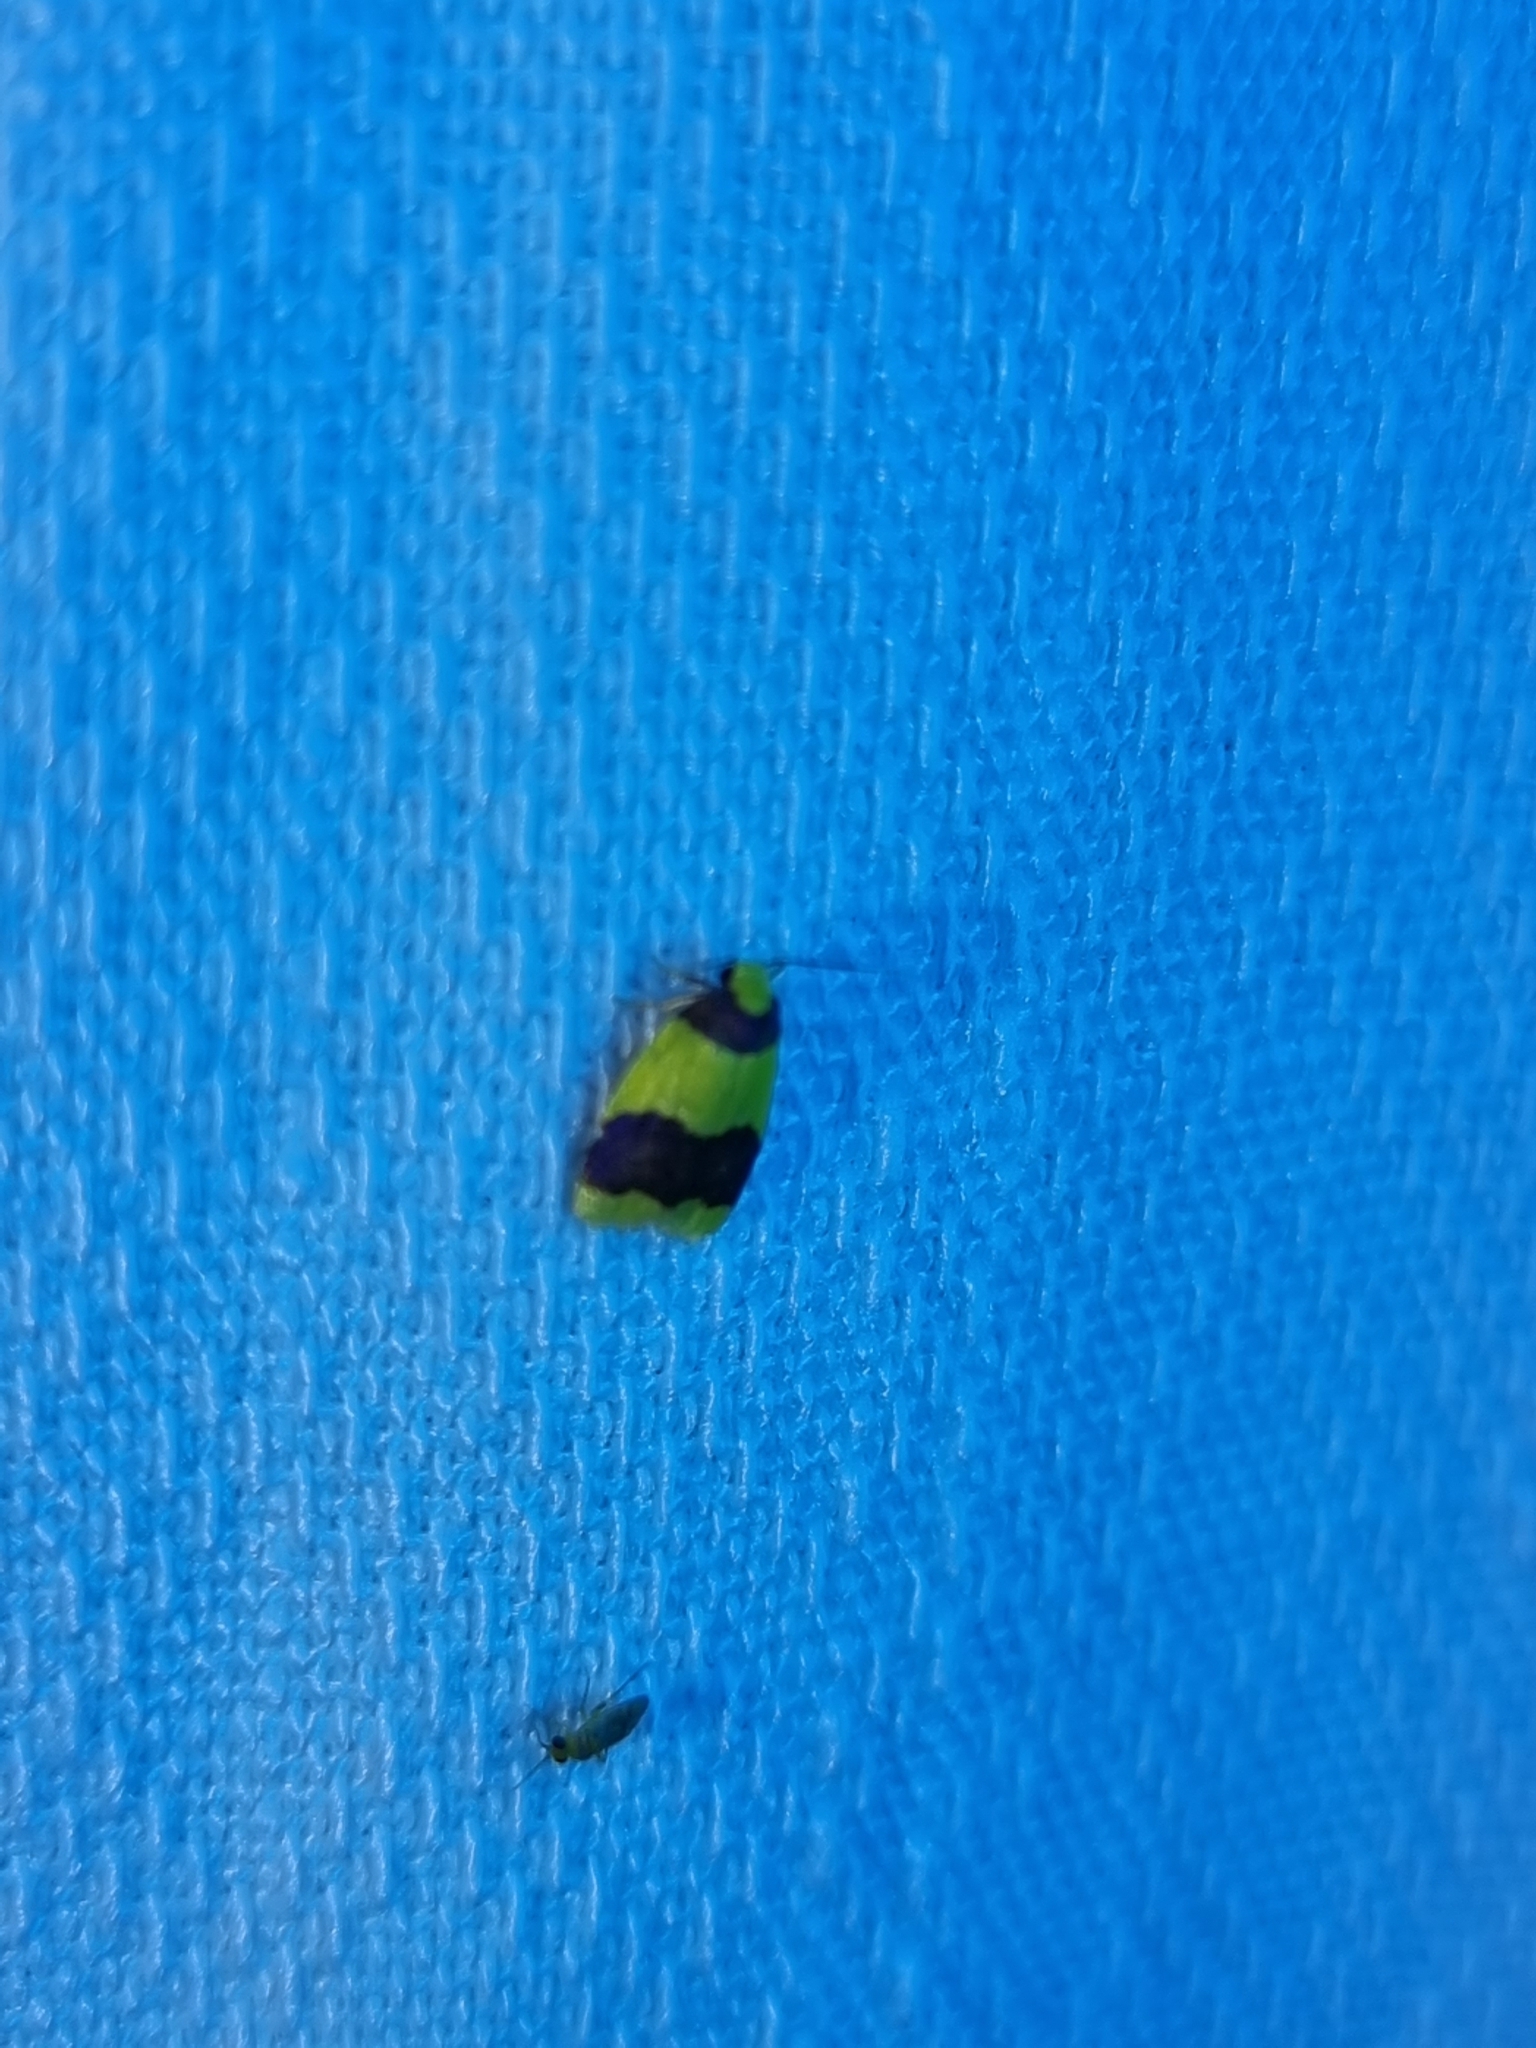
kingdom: Animalia
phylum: Arthropoda
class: Insecta
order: Lepidoptera
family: Erebidae
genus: Heterallactis
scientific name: Heterallactis microchrysa
